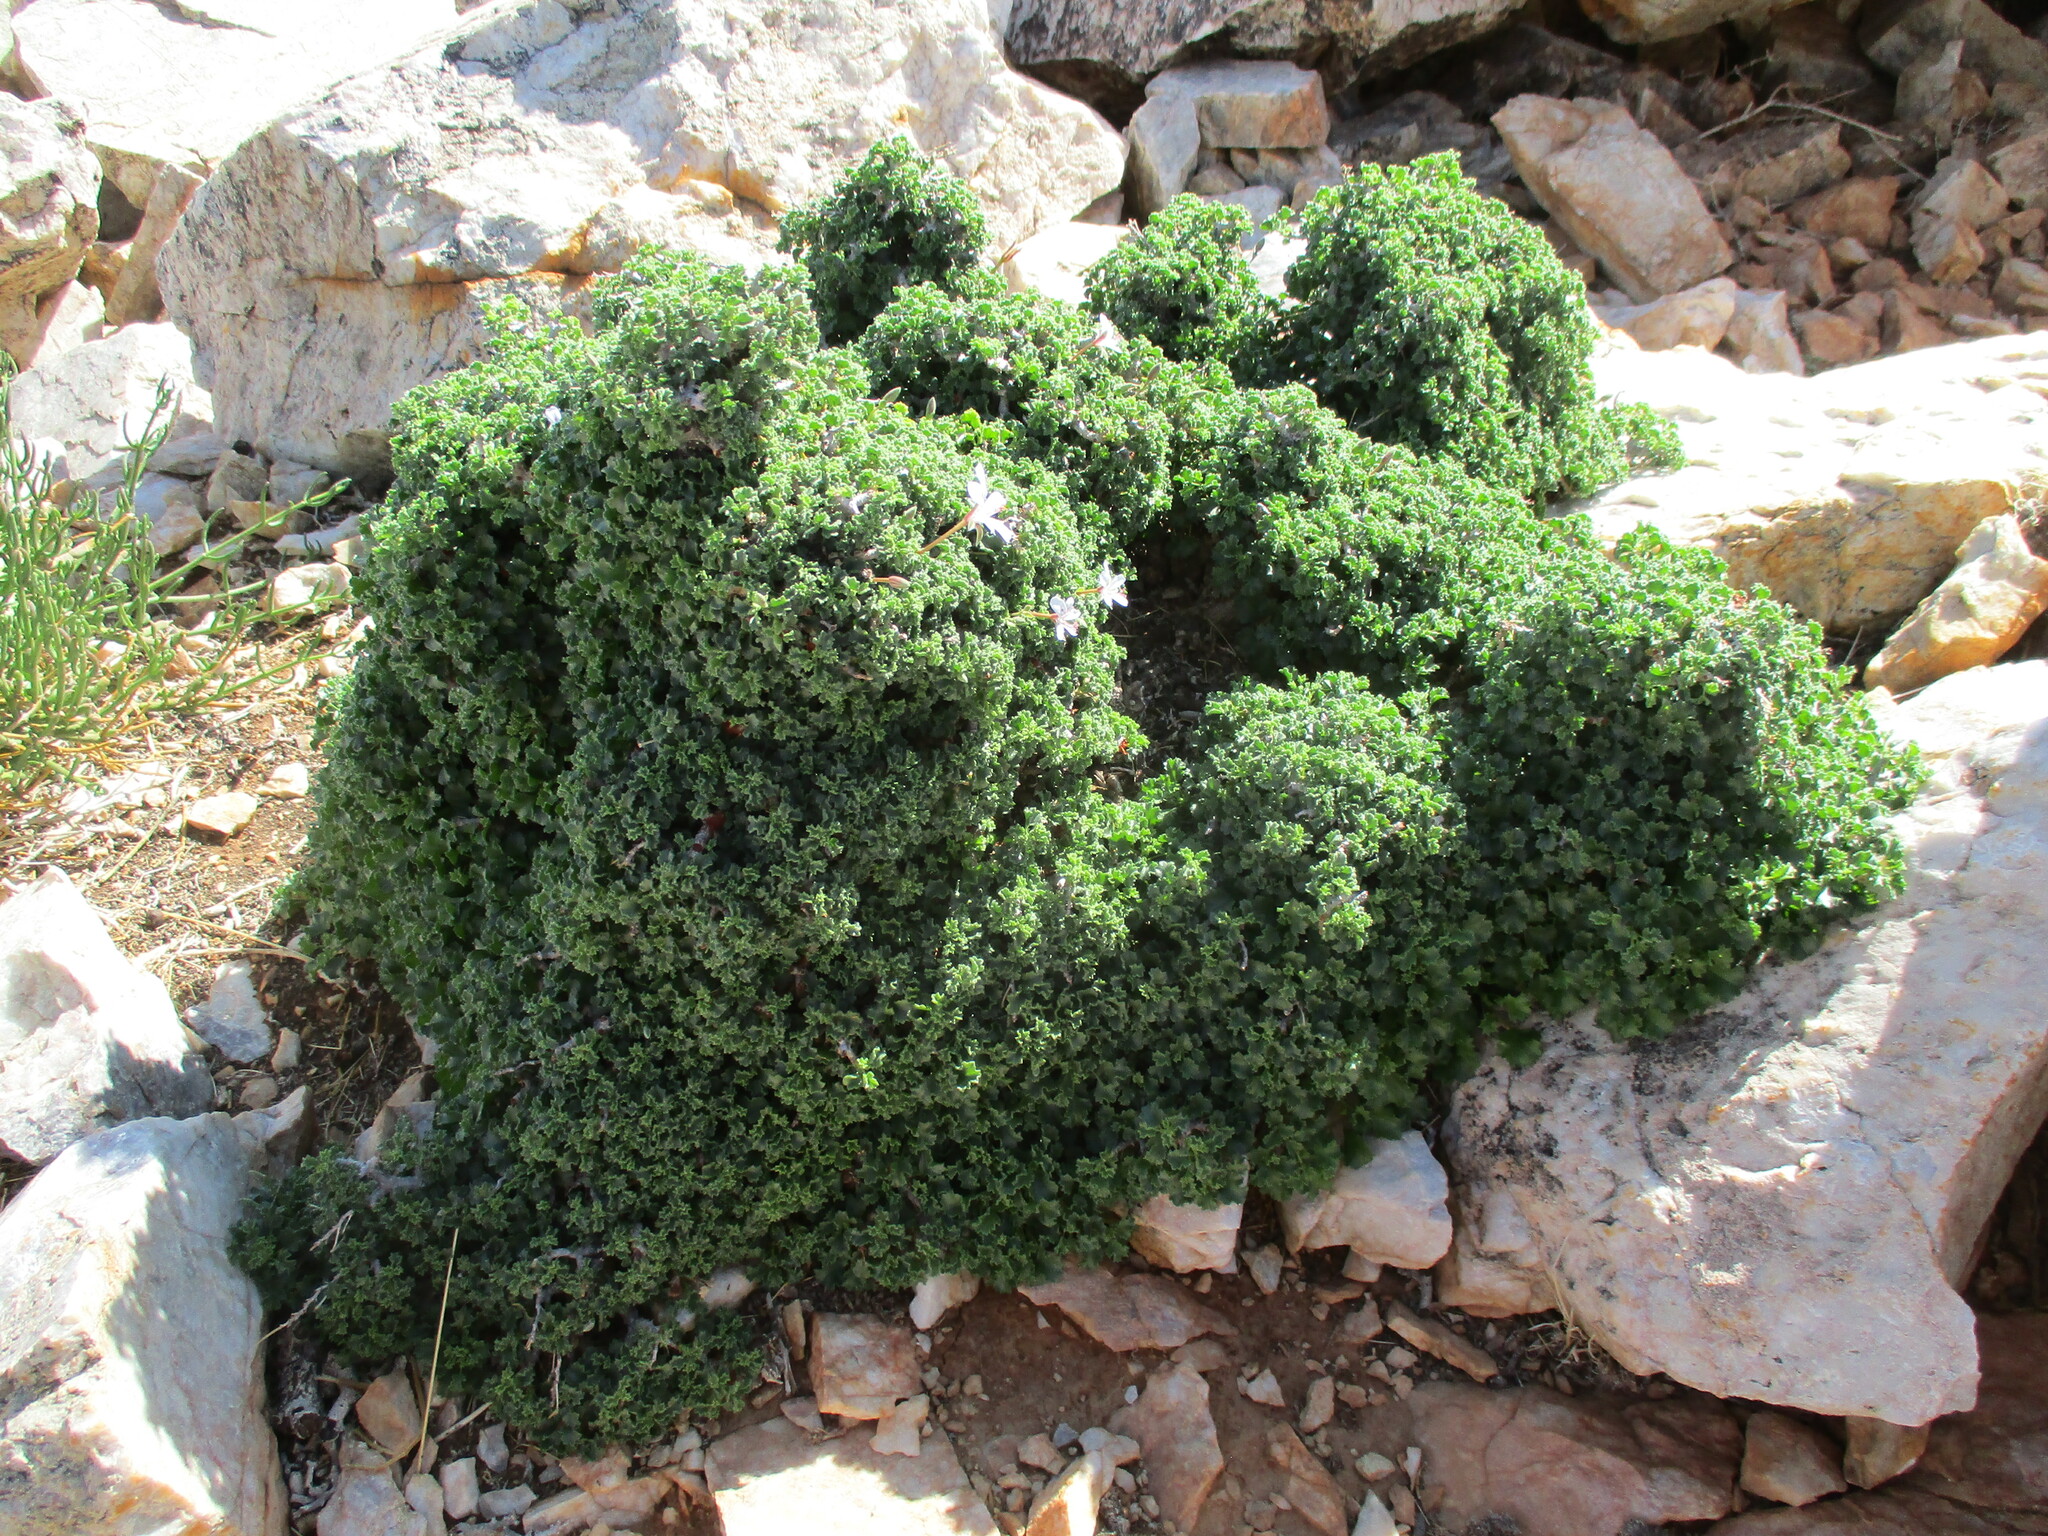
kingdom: Plantae
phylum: Tracheophyta
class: Magnoliopsida
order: Geraniales
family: Geraniaceae
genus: Pelargonium
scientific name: Pelargonium xerophyton
